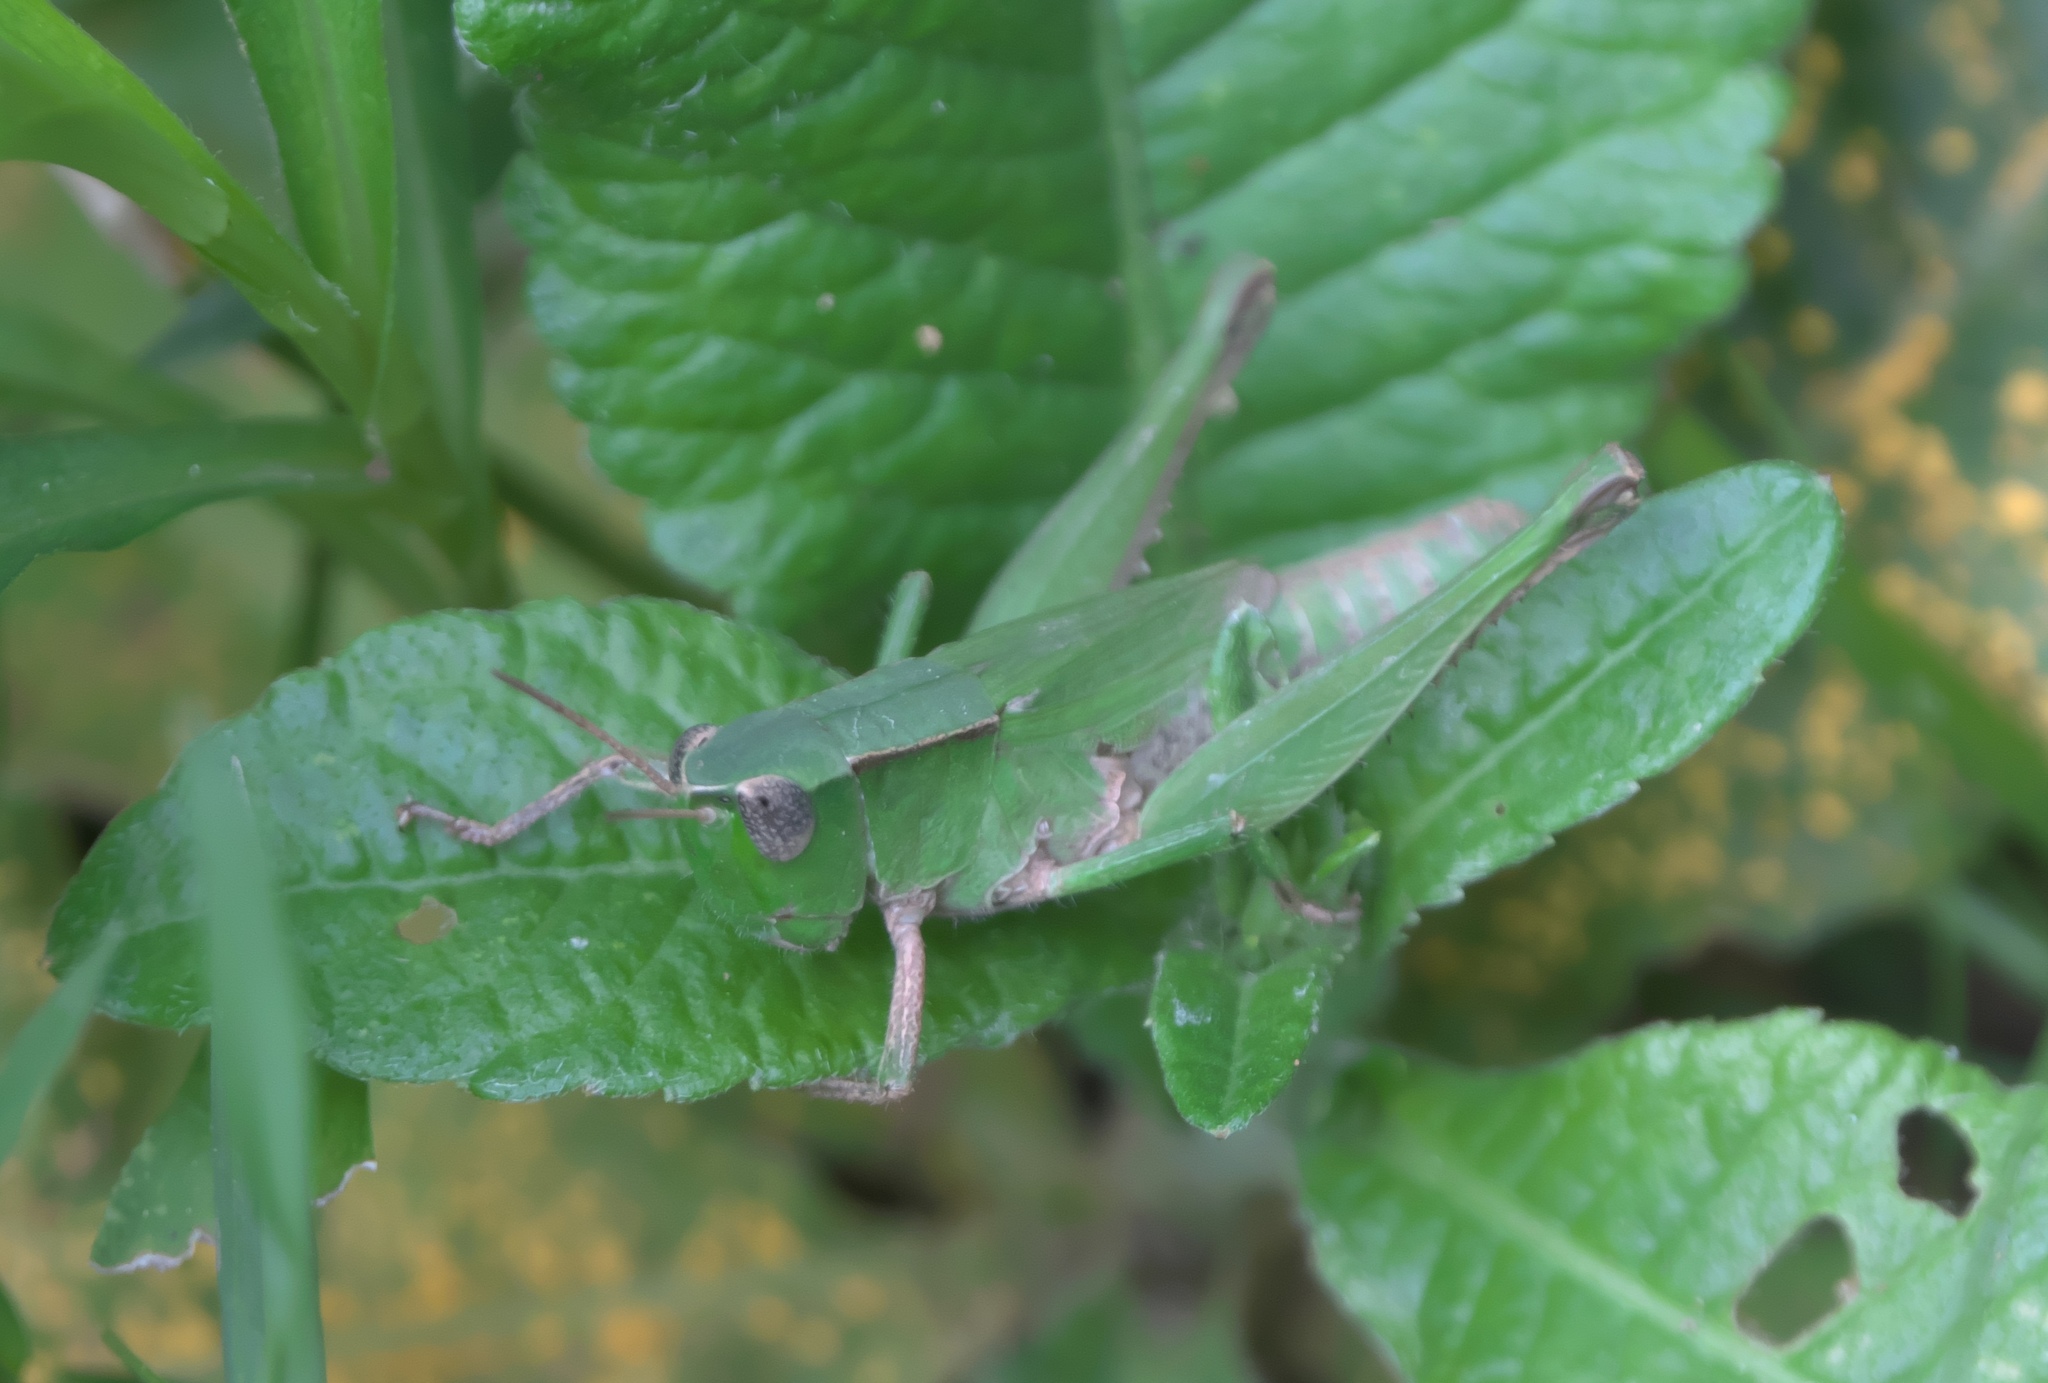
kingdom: Animalia
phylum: Arthropoda
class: Insecta
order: Orthoptera
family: Acrididae
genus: Dichromorpha
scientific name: Dichromorpha viridis
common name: Short-winged green grasshopper
